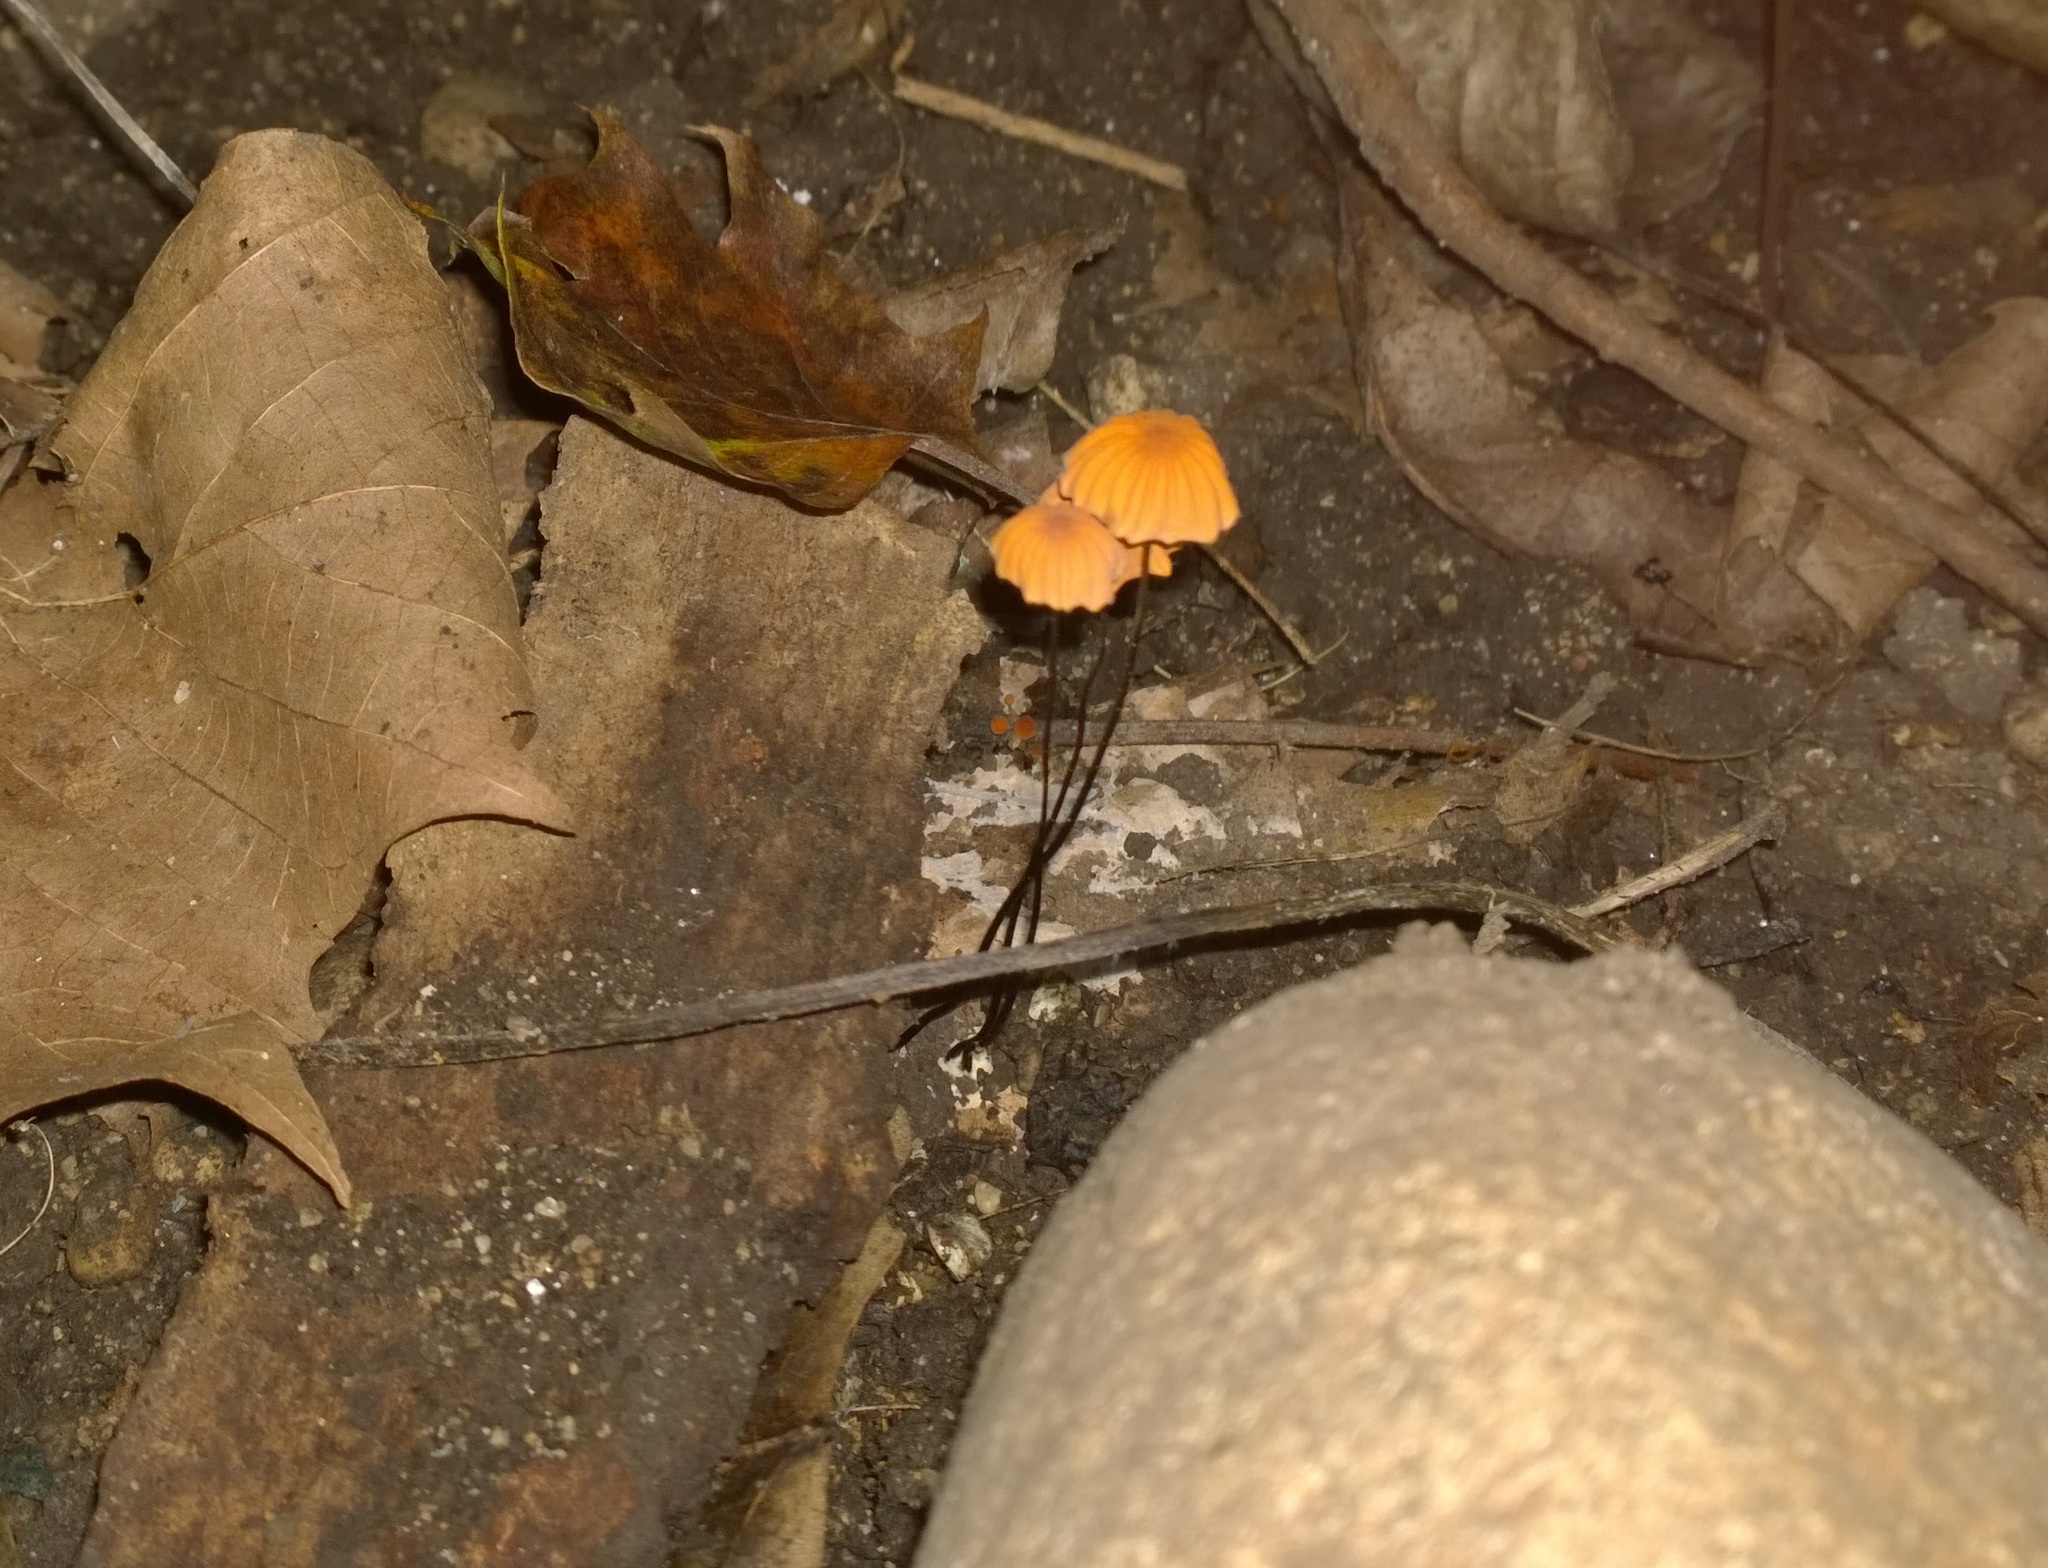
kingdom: Fungi
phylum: Basidiomycota
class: Agaricomycetes
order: Agaricales
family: Marasmiaceae
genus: Marasmius
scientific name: Marasmius siccus
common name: Orange pinwheel
